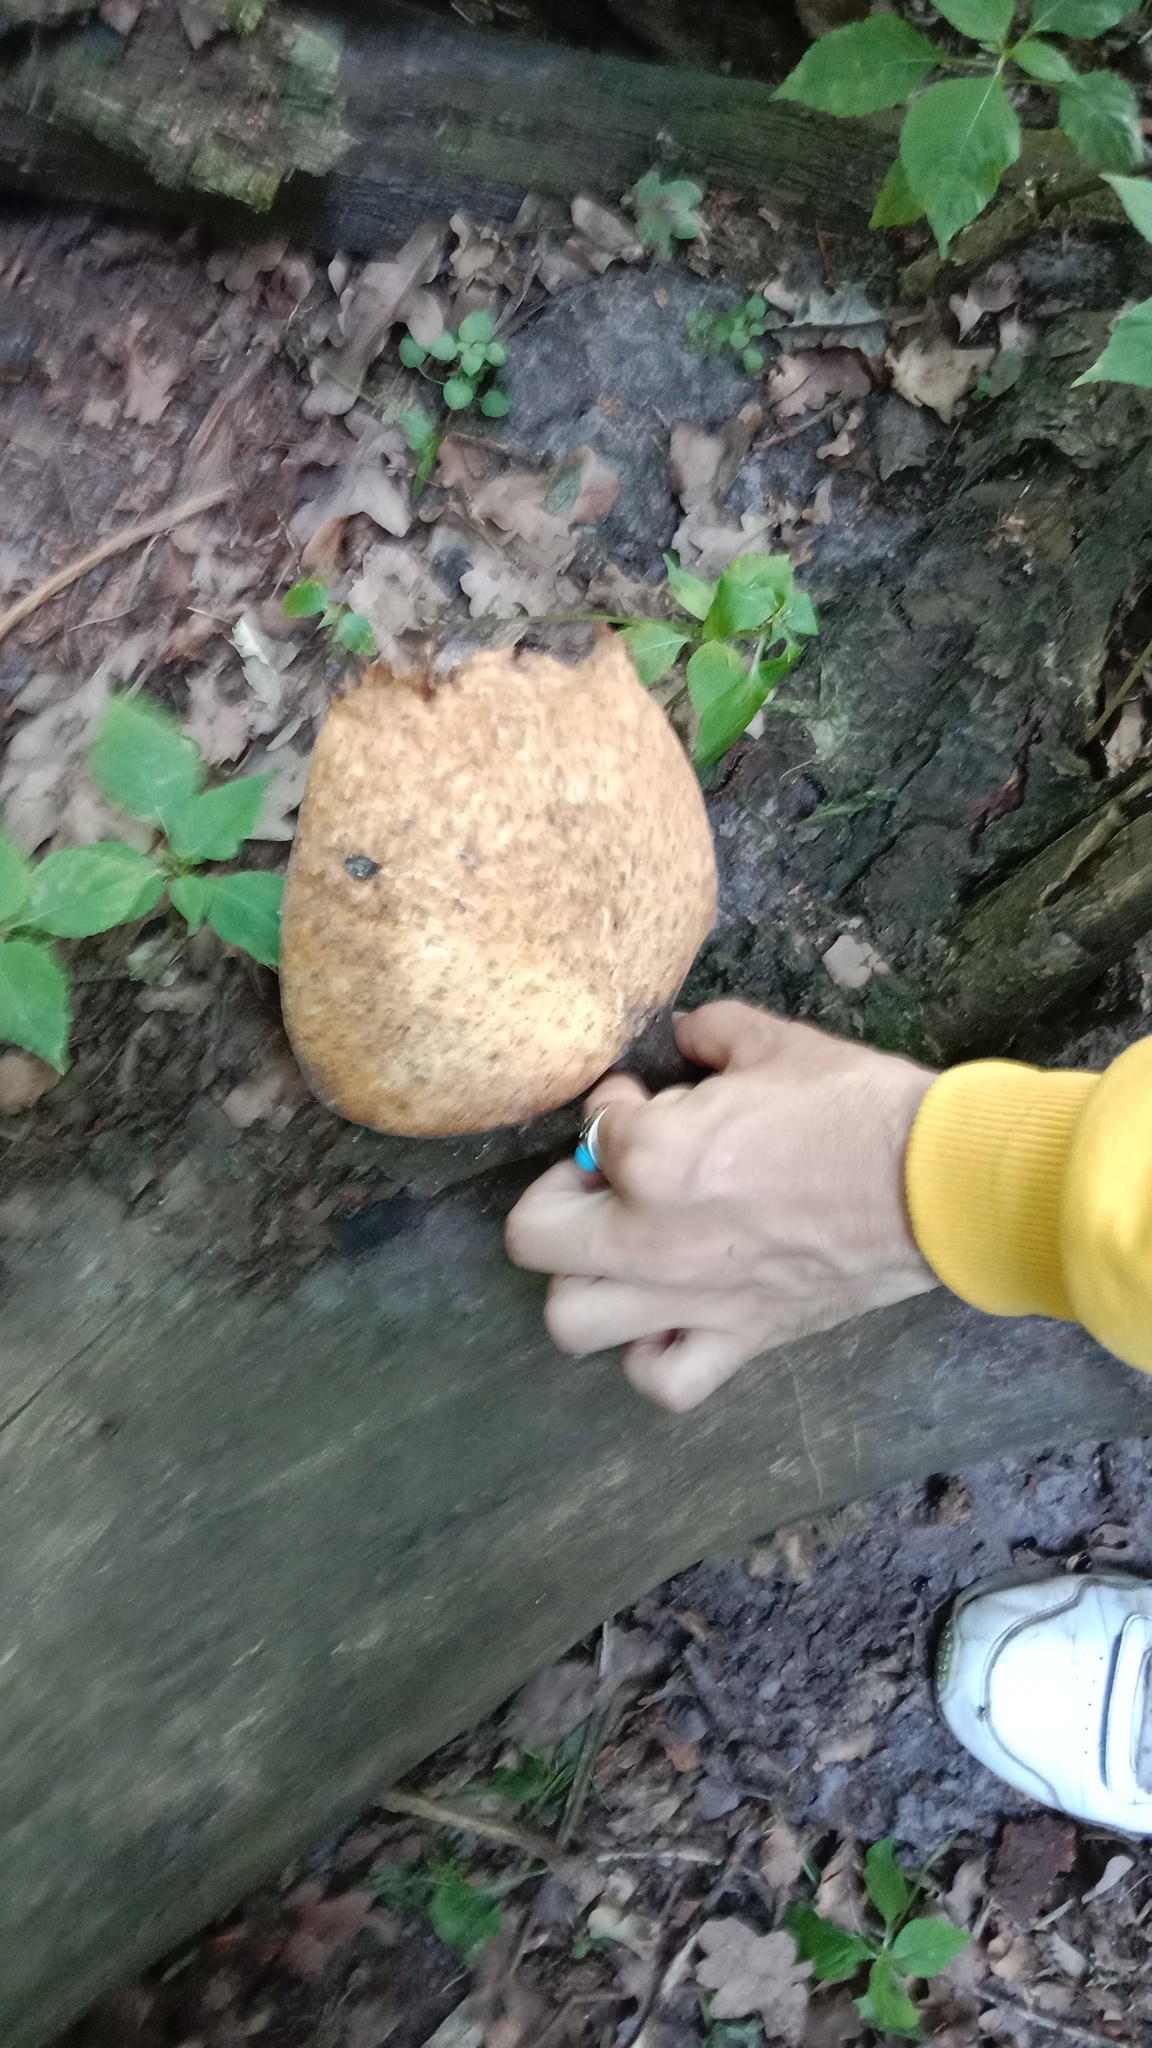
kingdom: Fungi
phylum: Basidiomycota
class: Agaricomycetes
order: Polyporales
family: Polyporaceae
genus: Cerioporus
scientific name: Cerioporus squamosus
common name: Dryad's saddle
